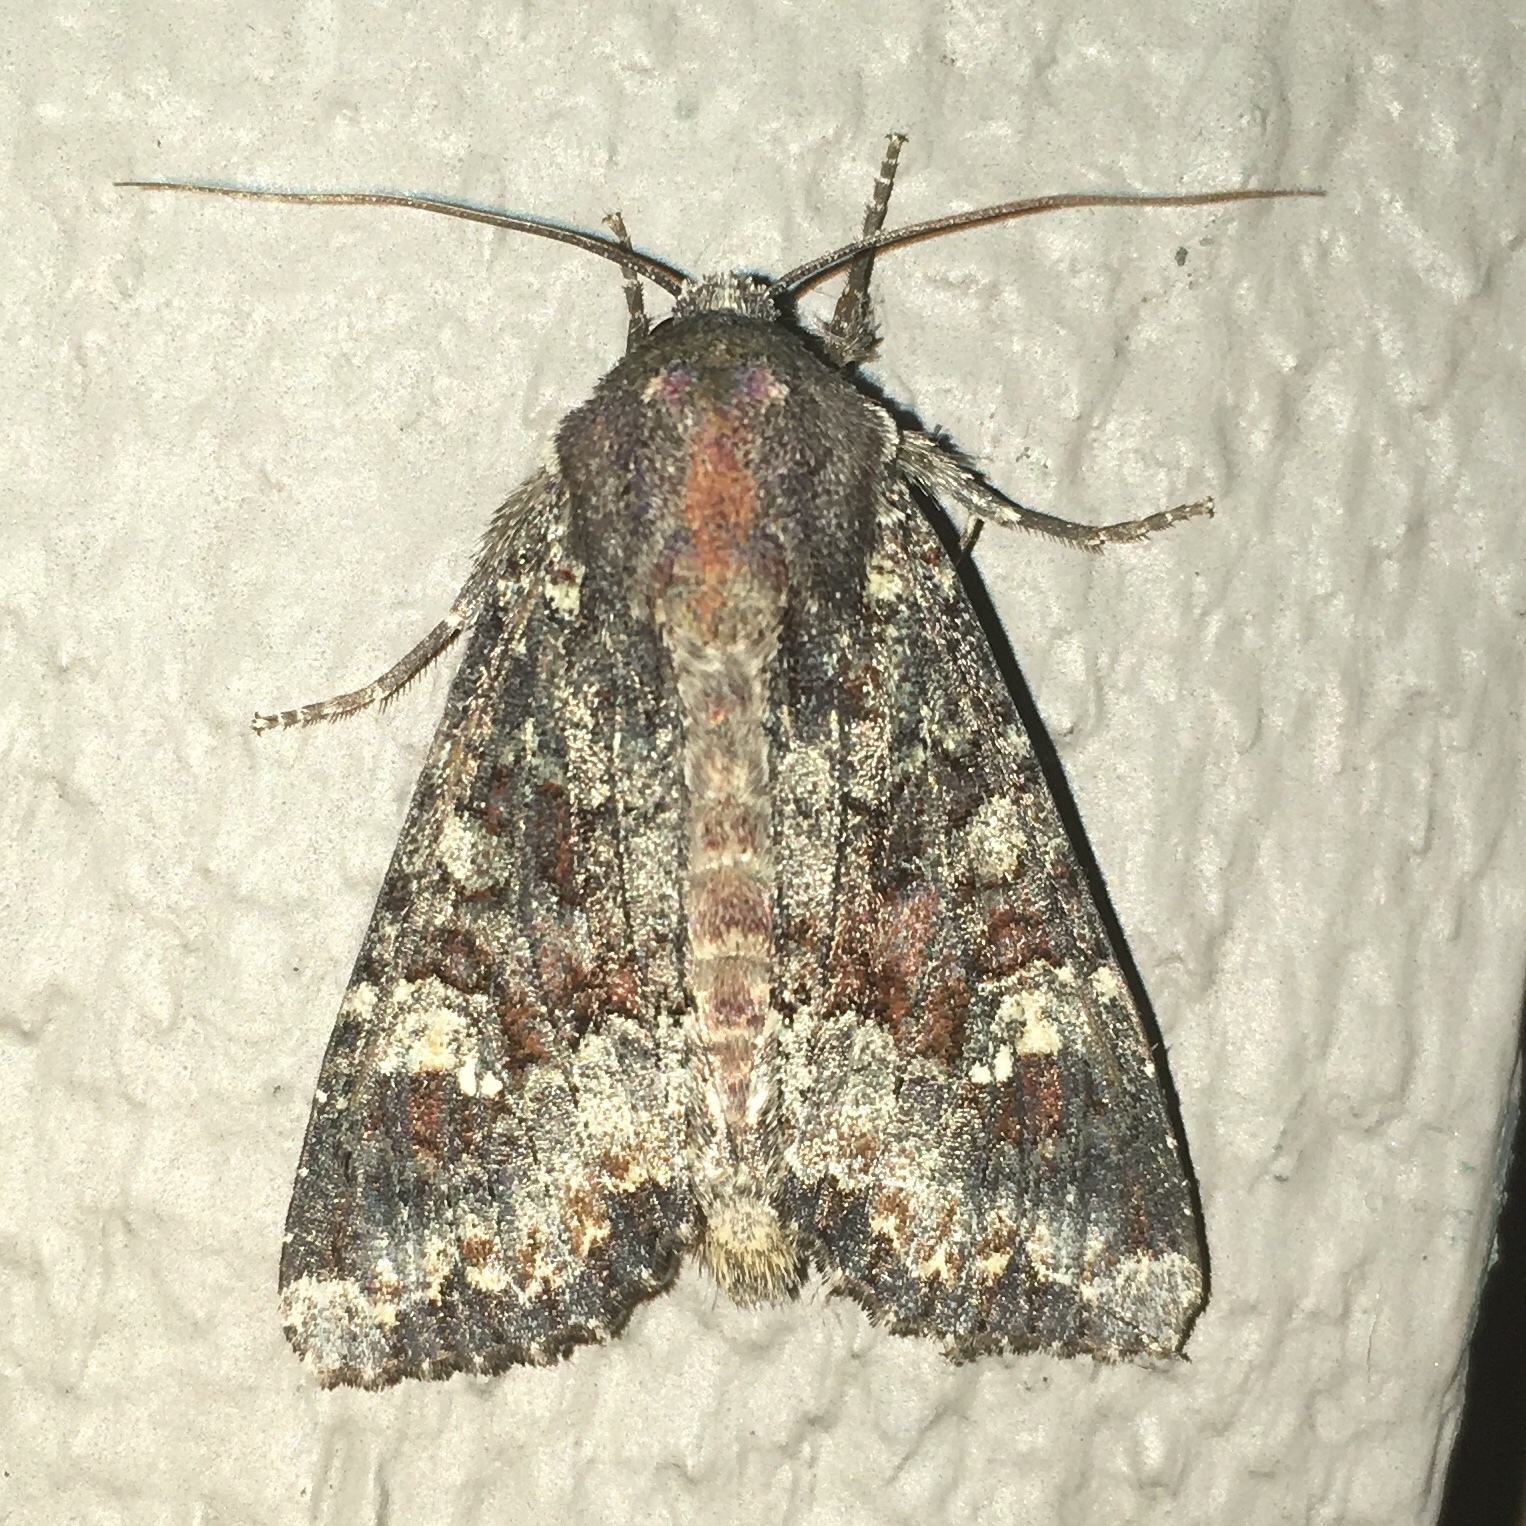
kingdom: Animalia
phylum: Arthropoda
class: Insecta
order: Lepidoptera
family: Noctuidae
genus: Apamea
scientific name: Apamea amputatrix
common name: Yellow-headed cutworm moth
